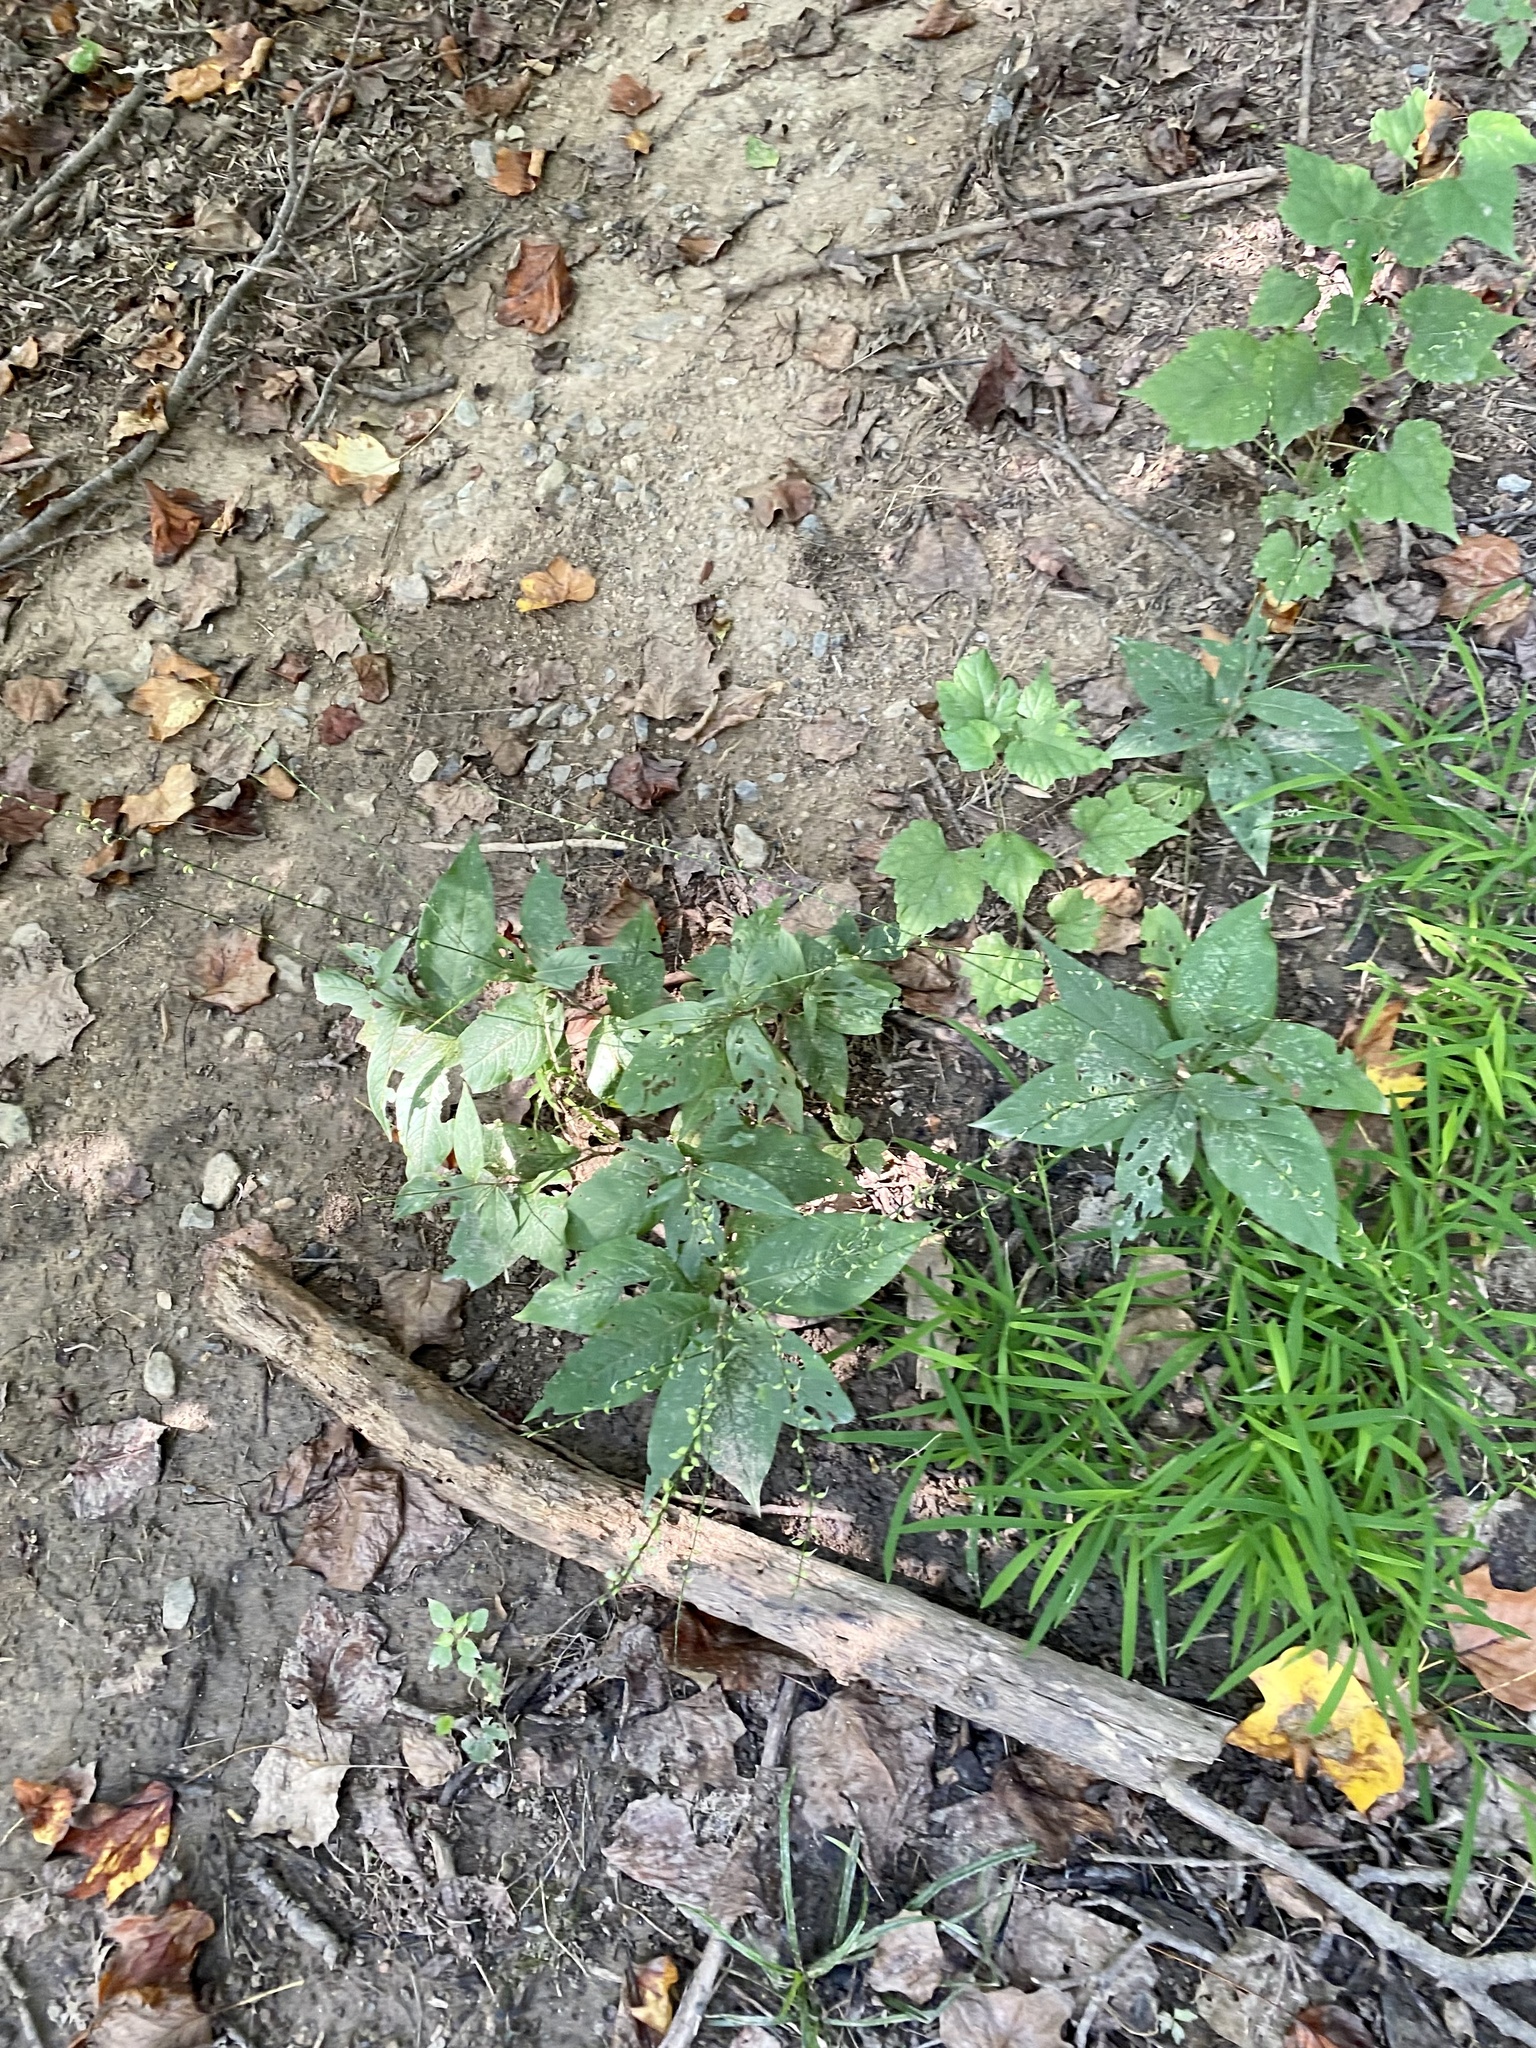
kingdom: Plantae
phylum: Tracheophyta
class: Magnoliopsida
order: Caryophyllales
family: Polygonaceae
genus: Persicaria
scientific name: Persicaria virginiana
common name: Jumpseed
